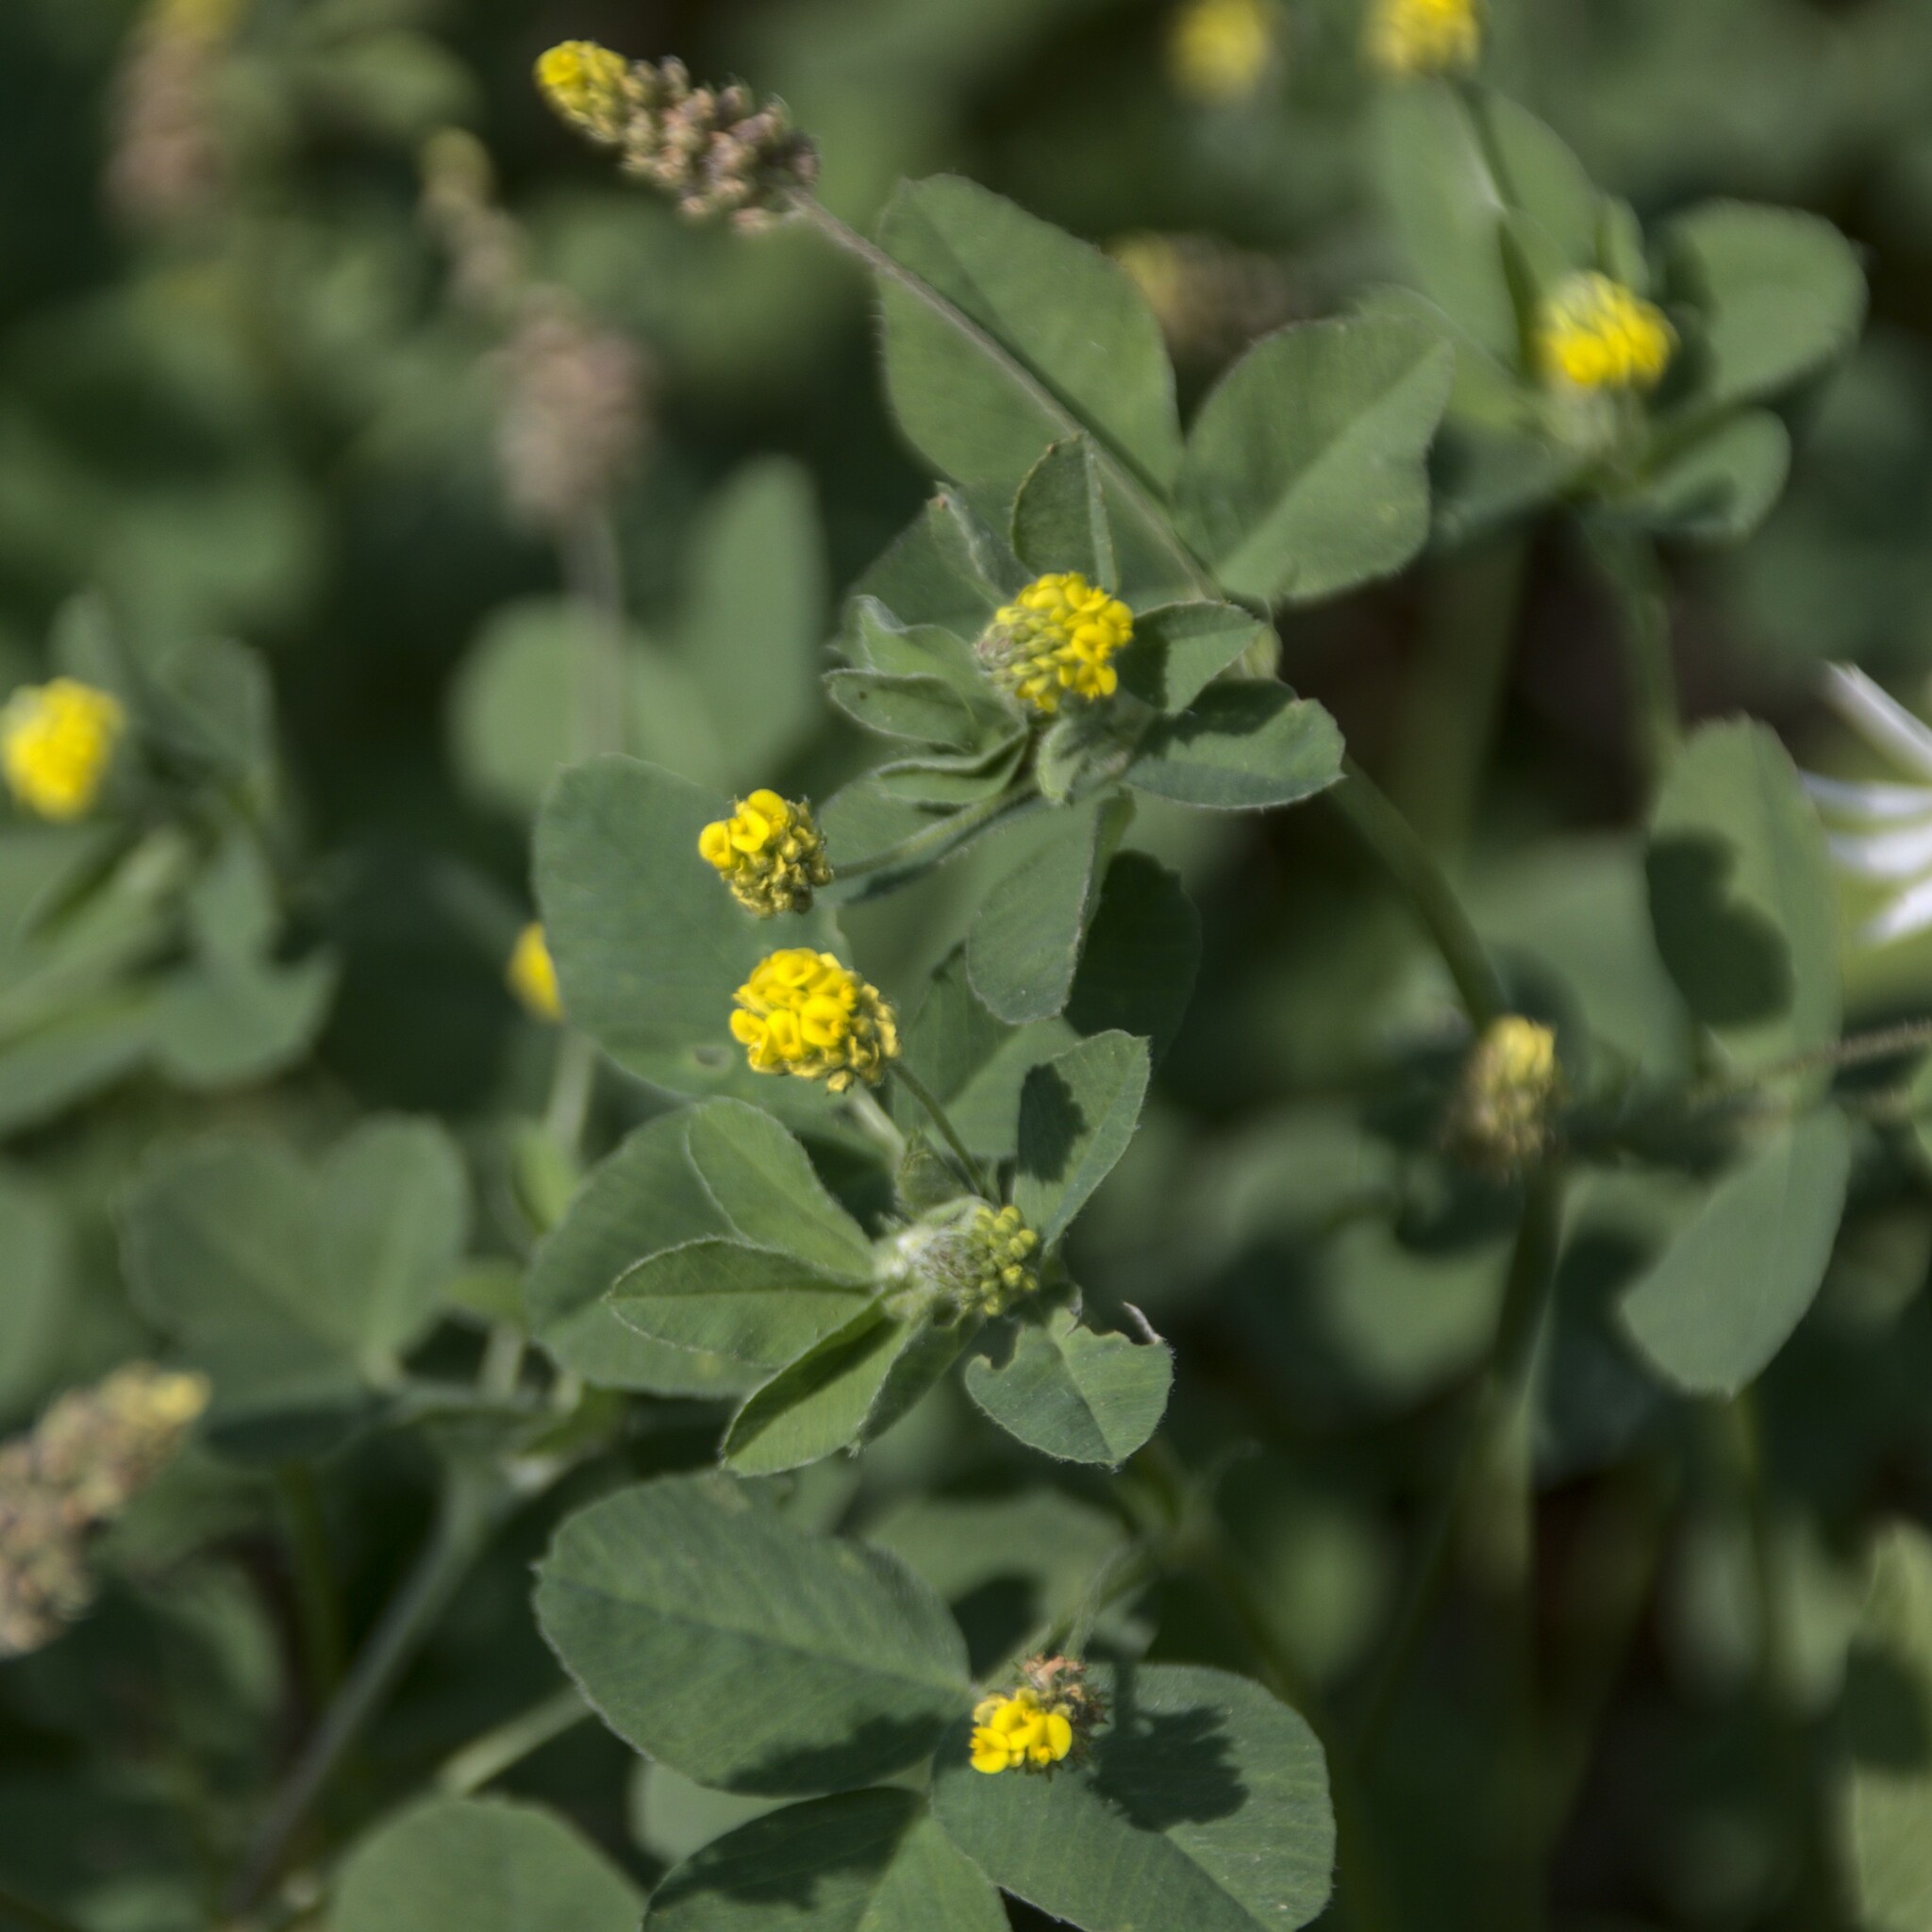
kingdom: Plantae
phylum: Tracheophyta
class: Magnoliopsida
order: Fabales
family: Fabaceae
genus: Medicago
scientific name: Medicago lupulina
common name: Black medick
